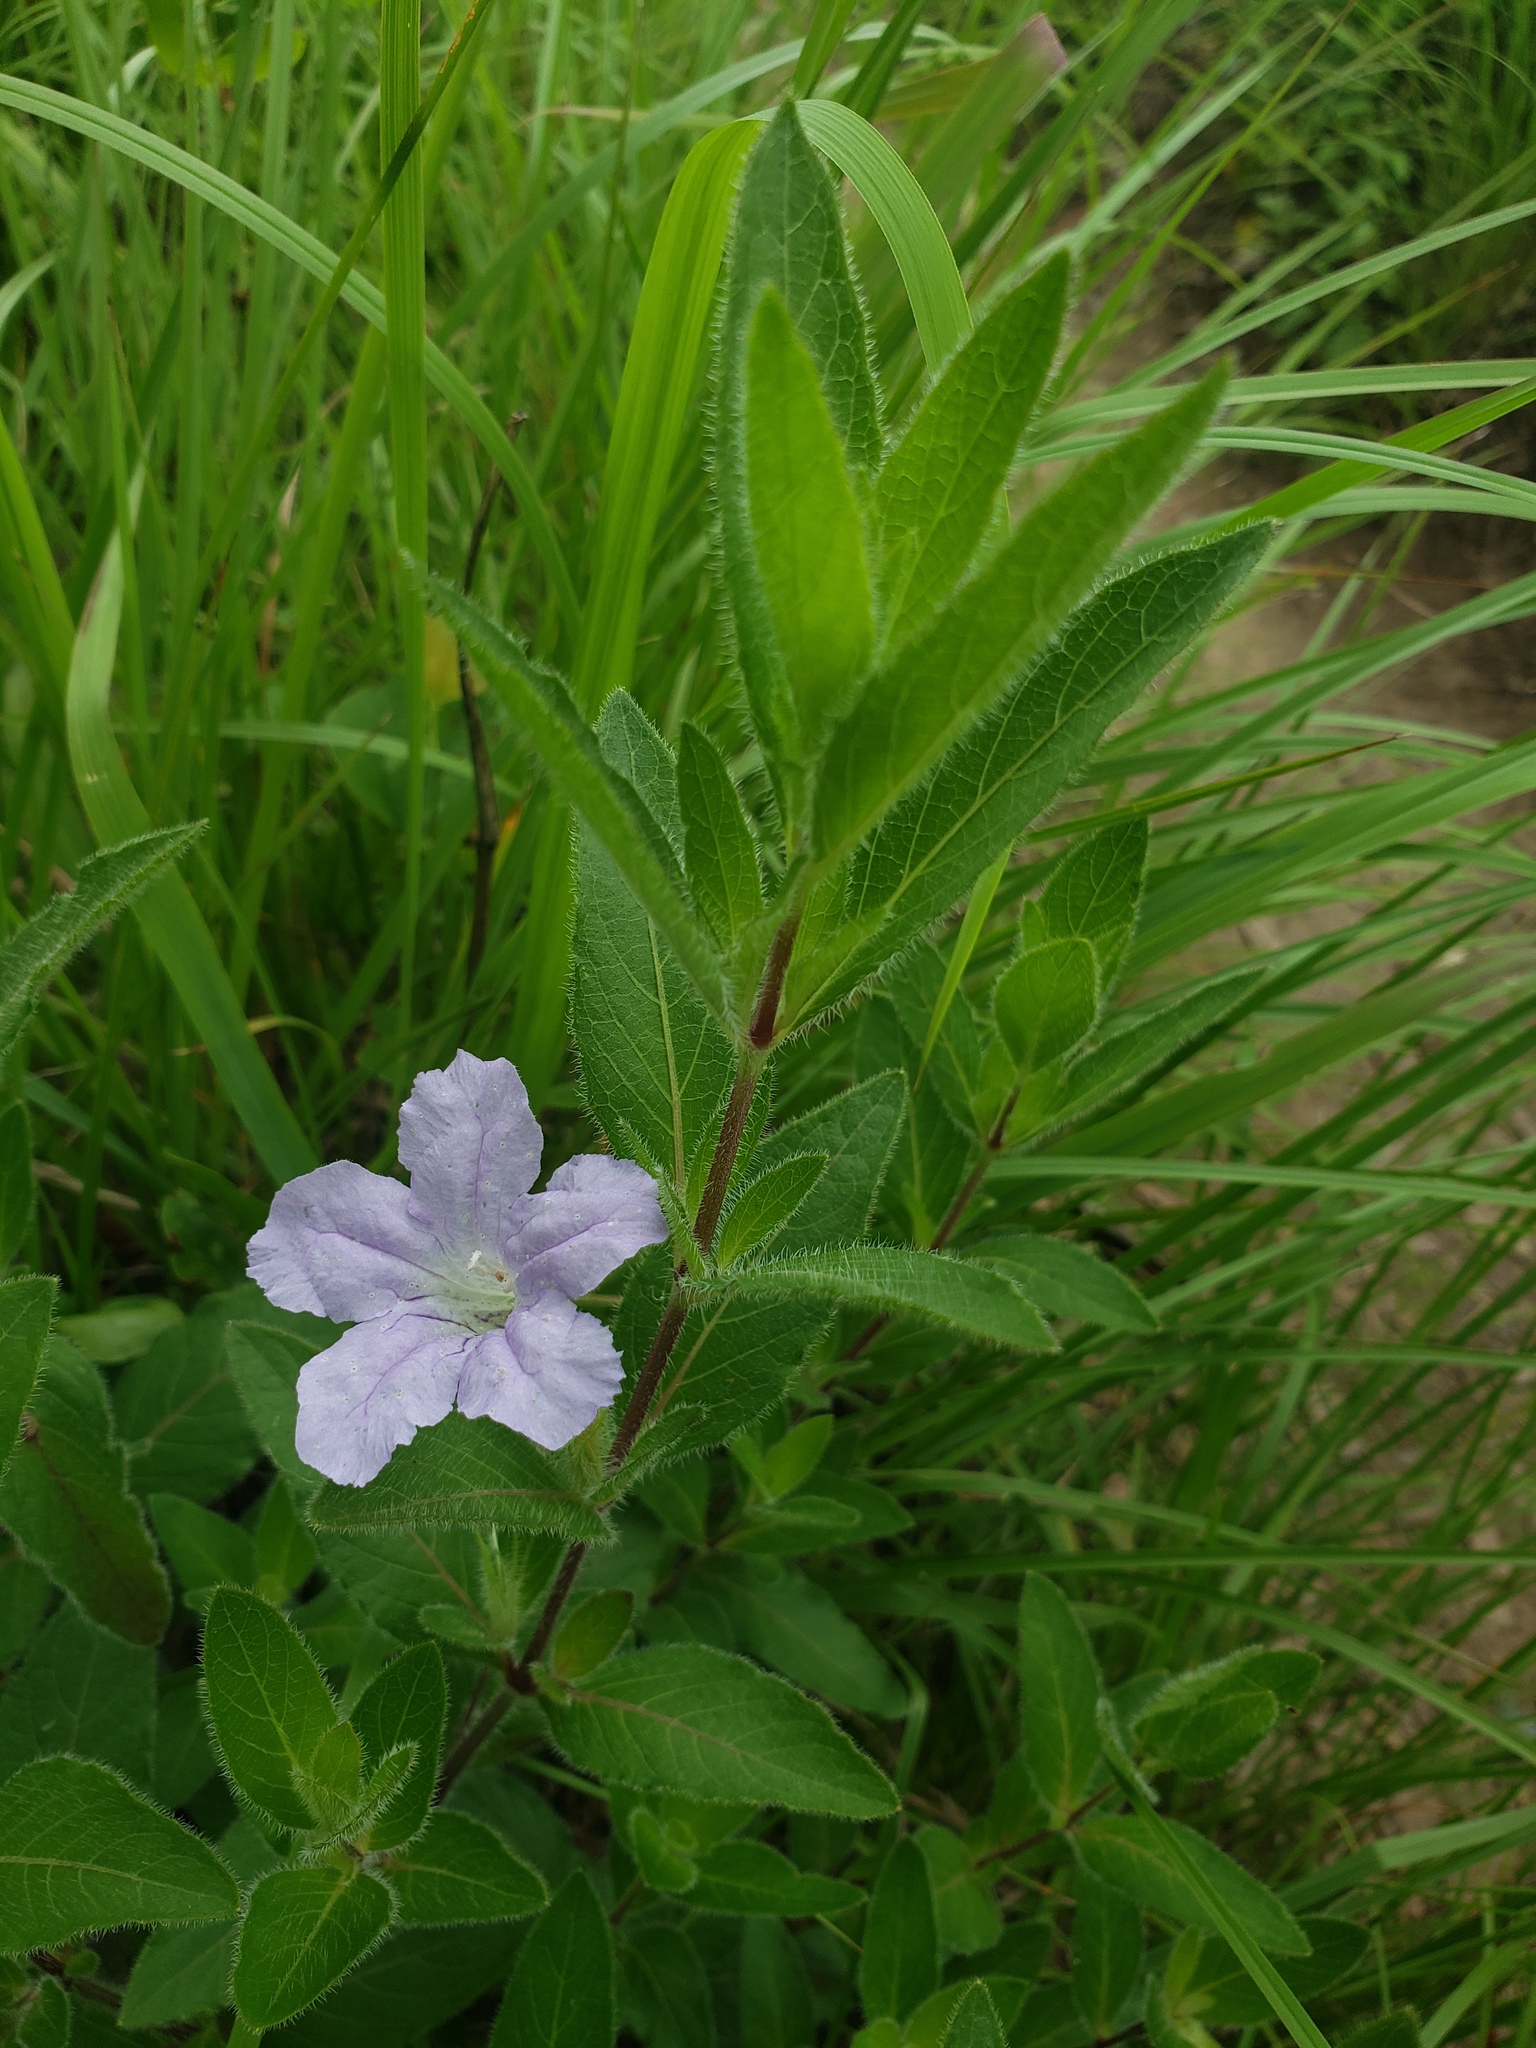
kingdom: Plantae
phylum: Tracheophyta
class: Magnoliopsida
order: Lamiales
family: Acanthaceae
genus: Ruellia
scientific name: Ruellia humilis
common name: Fringe-leaf ruellia
